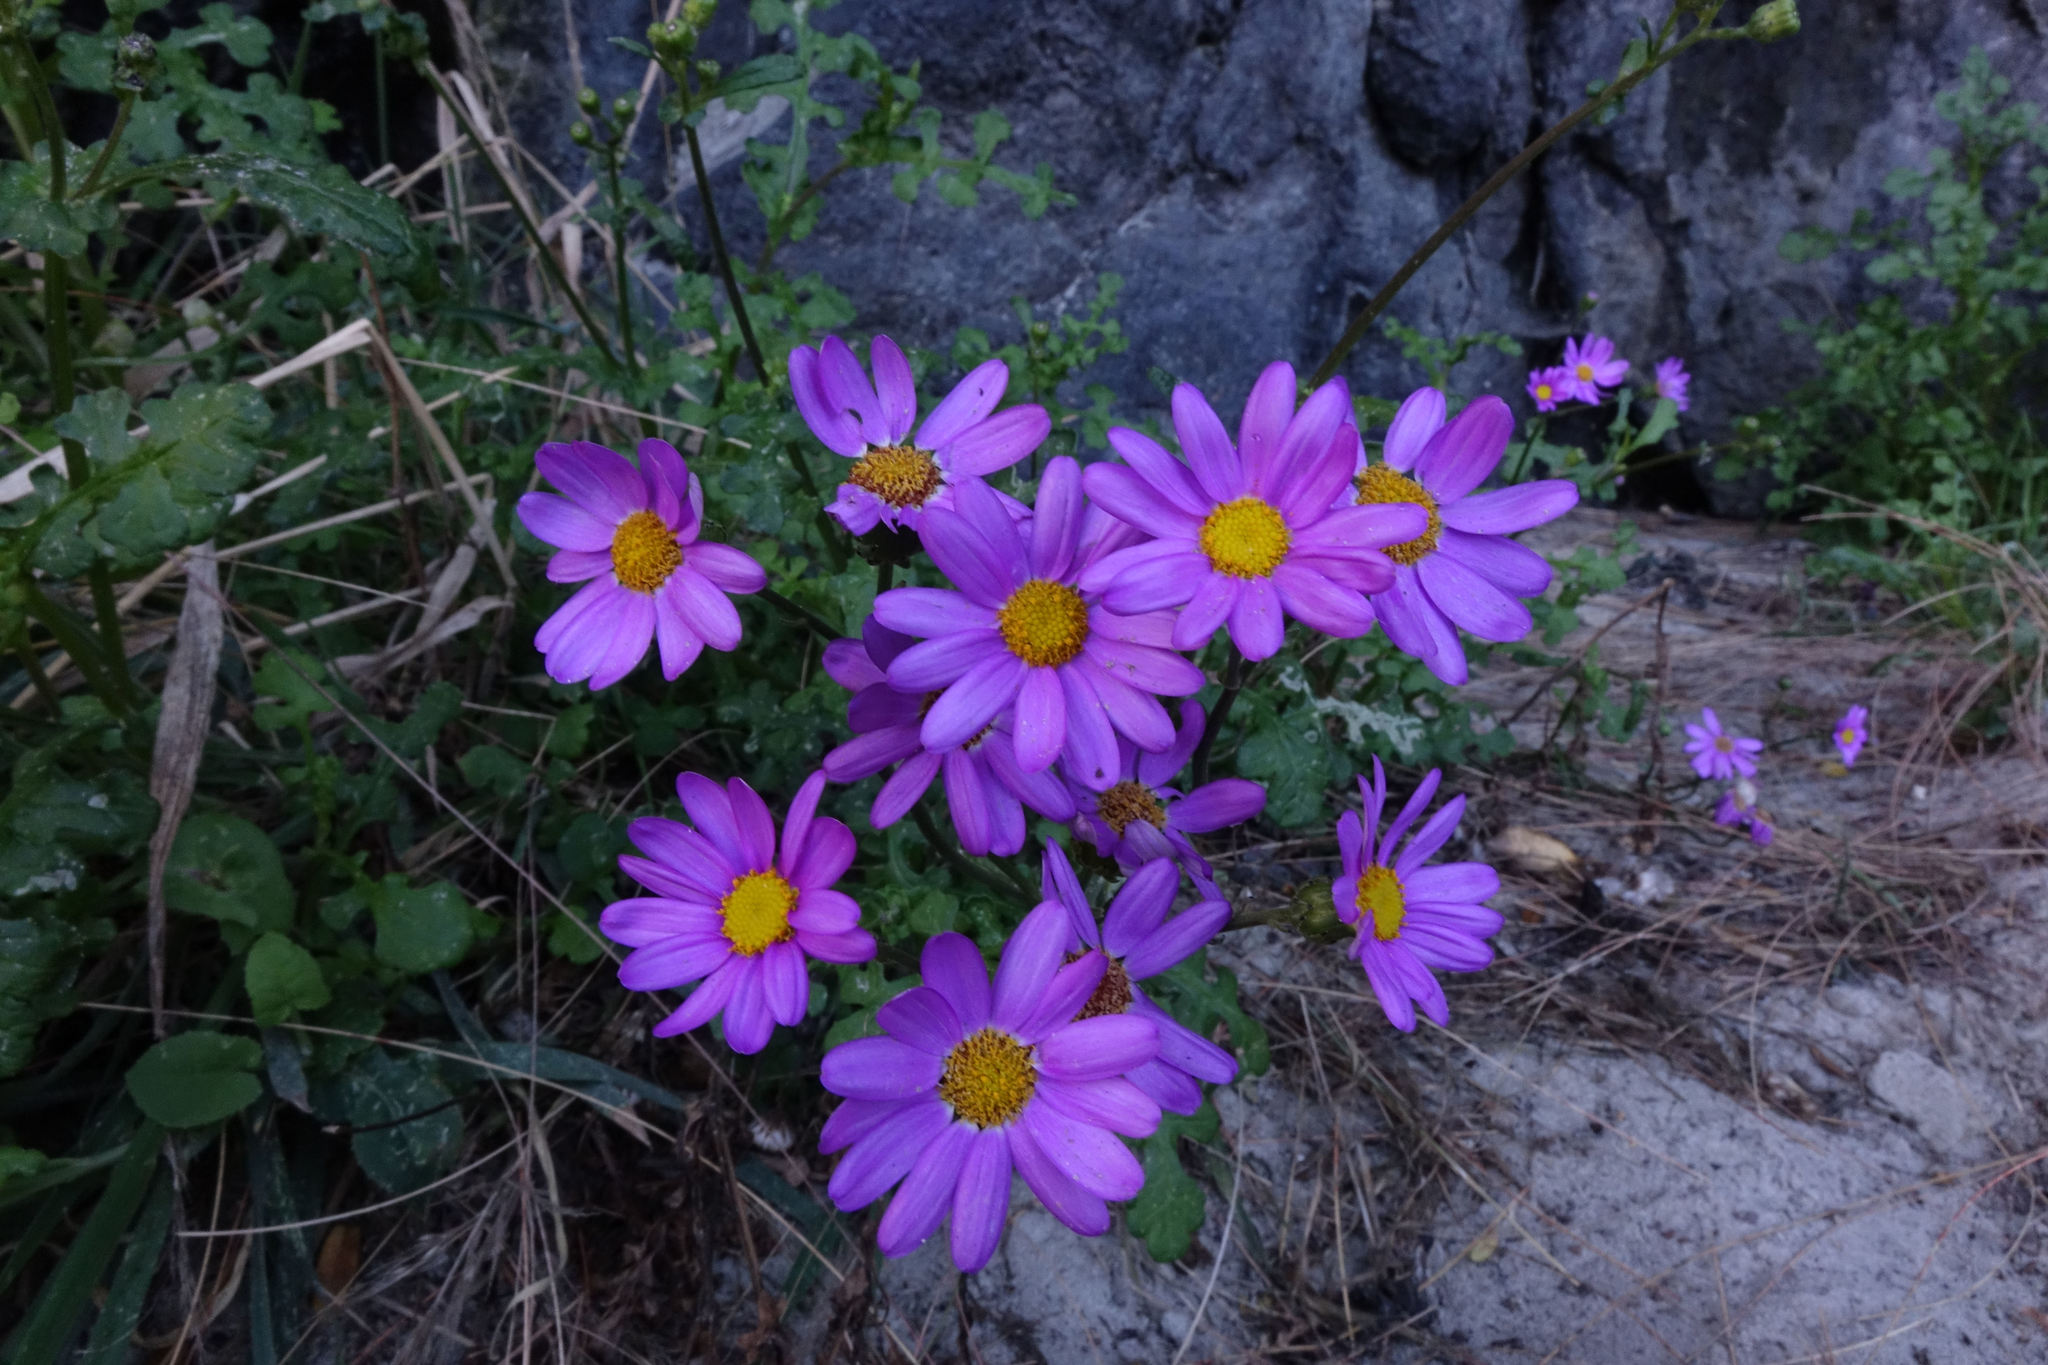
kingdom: Plantae
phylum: Tracheophyta
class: Magnoliopsida
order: Asterales
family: Asteraceae
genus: Senecio
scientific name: Senecio elegans
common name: Purple groundsel
